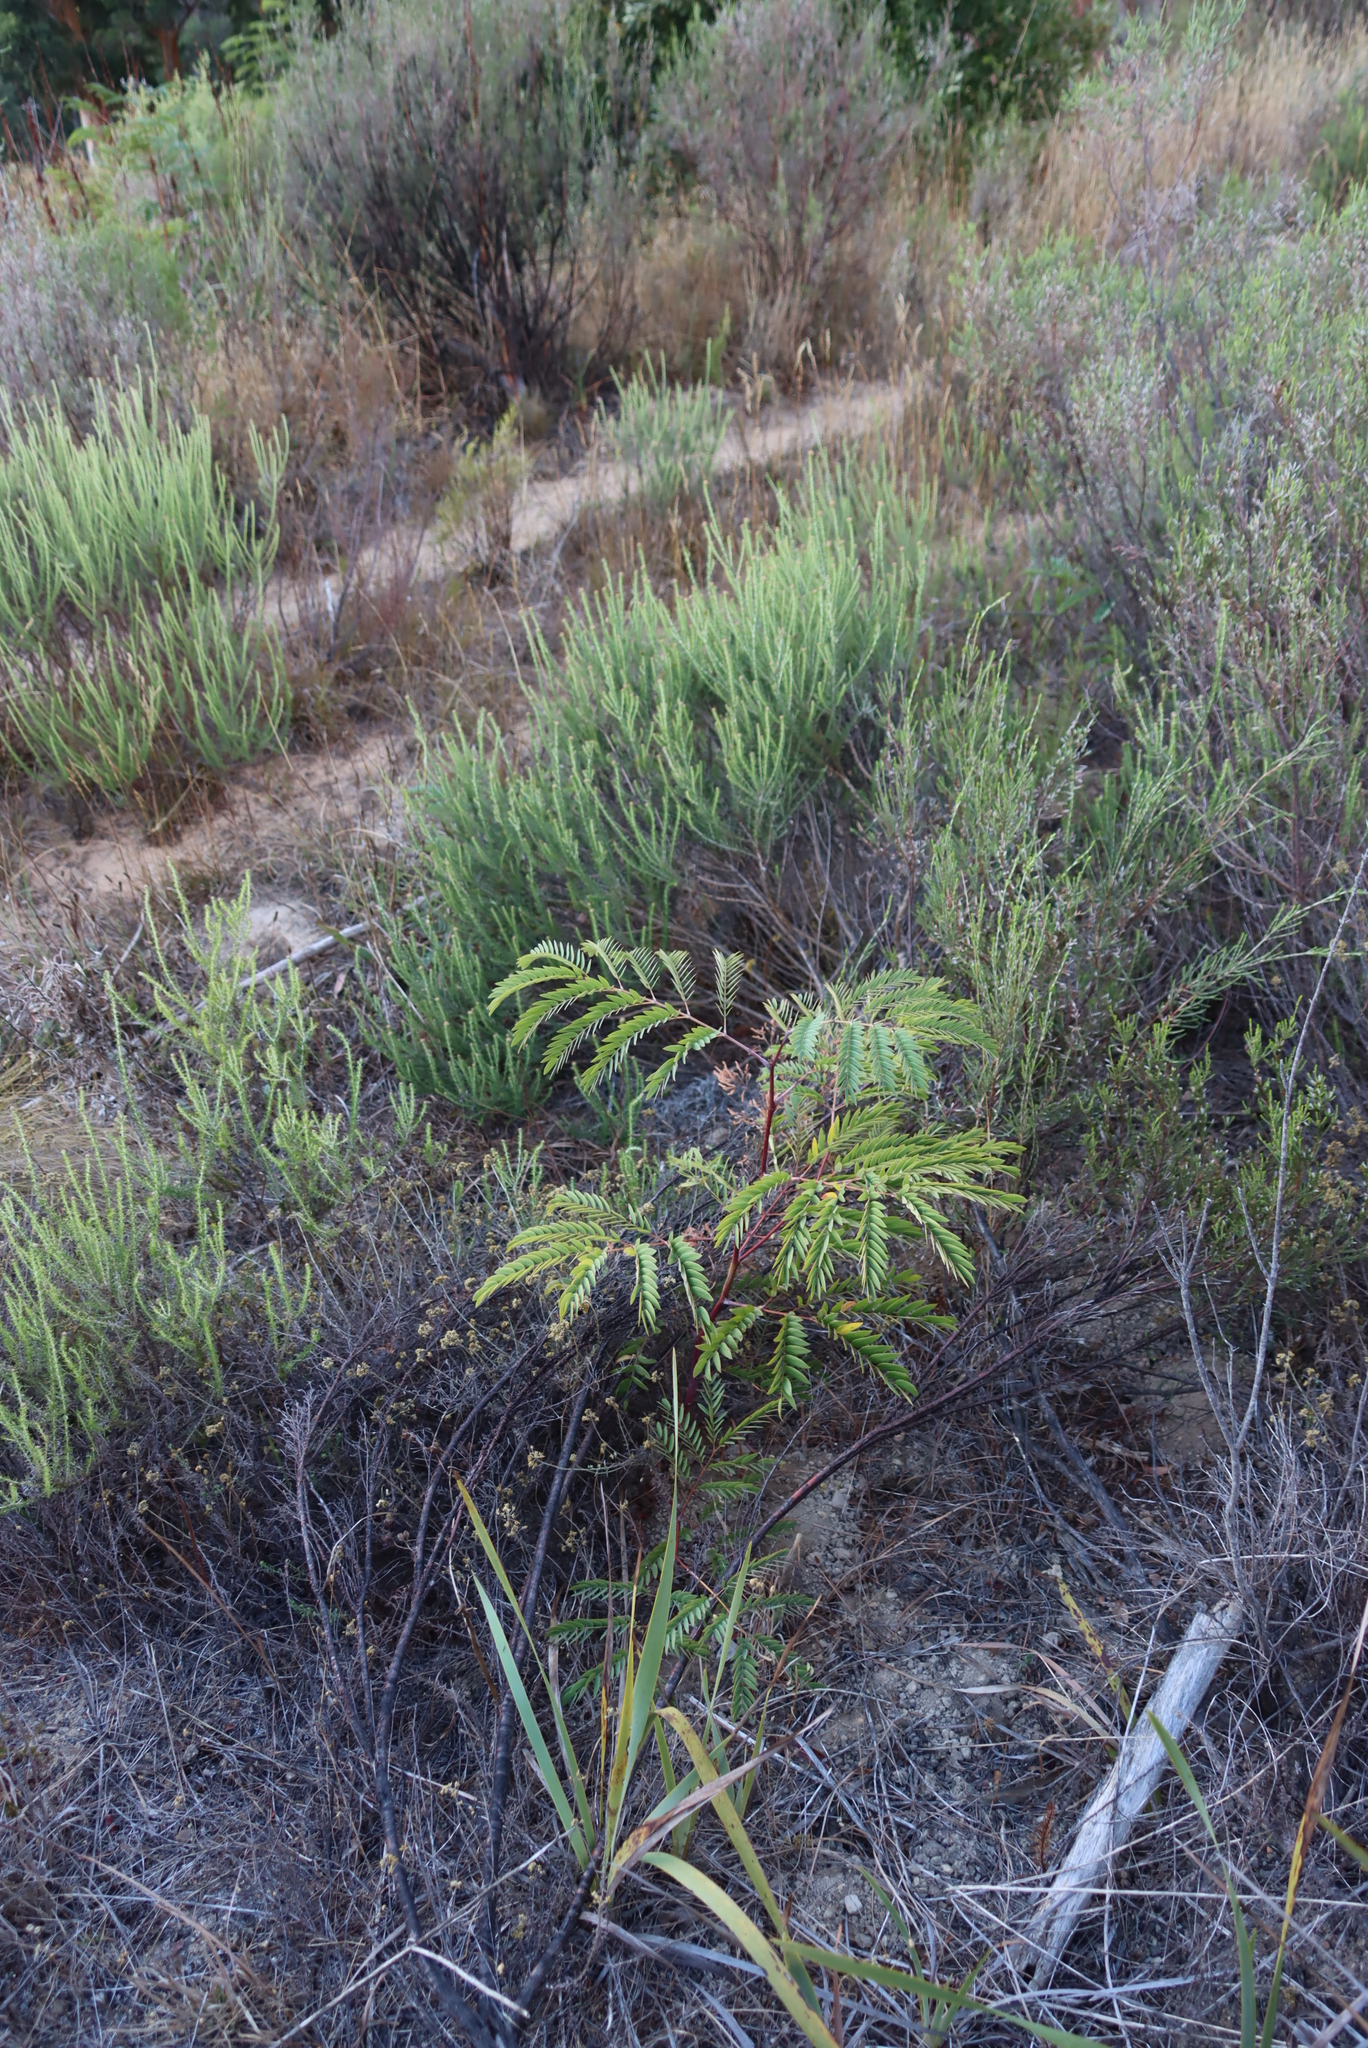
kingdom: Plantae
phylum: Tracheophyta
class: Magnoliopsida
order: Fabales
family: Fabaceae
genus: Paraserianthes
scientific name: Paraserianthes lophantha
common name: Plume albizia
